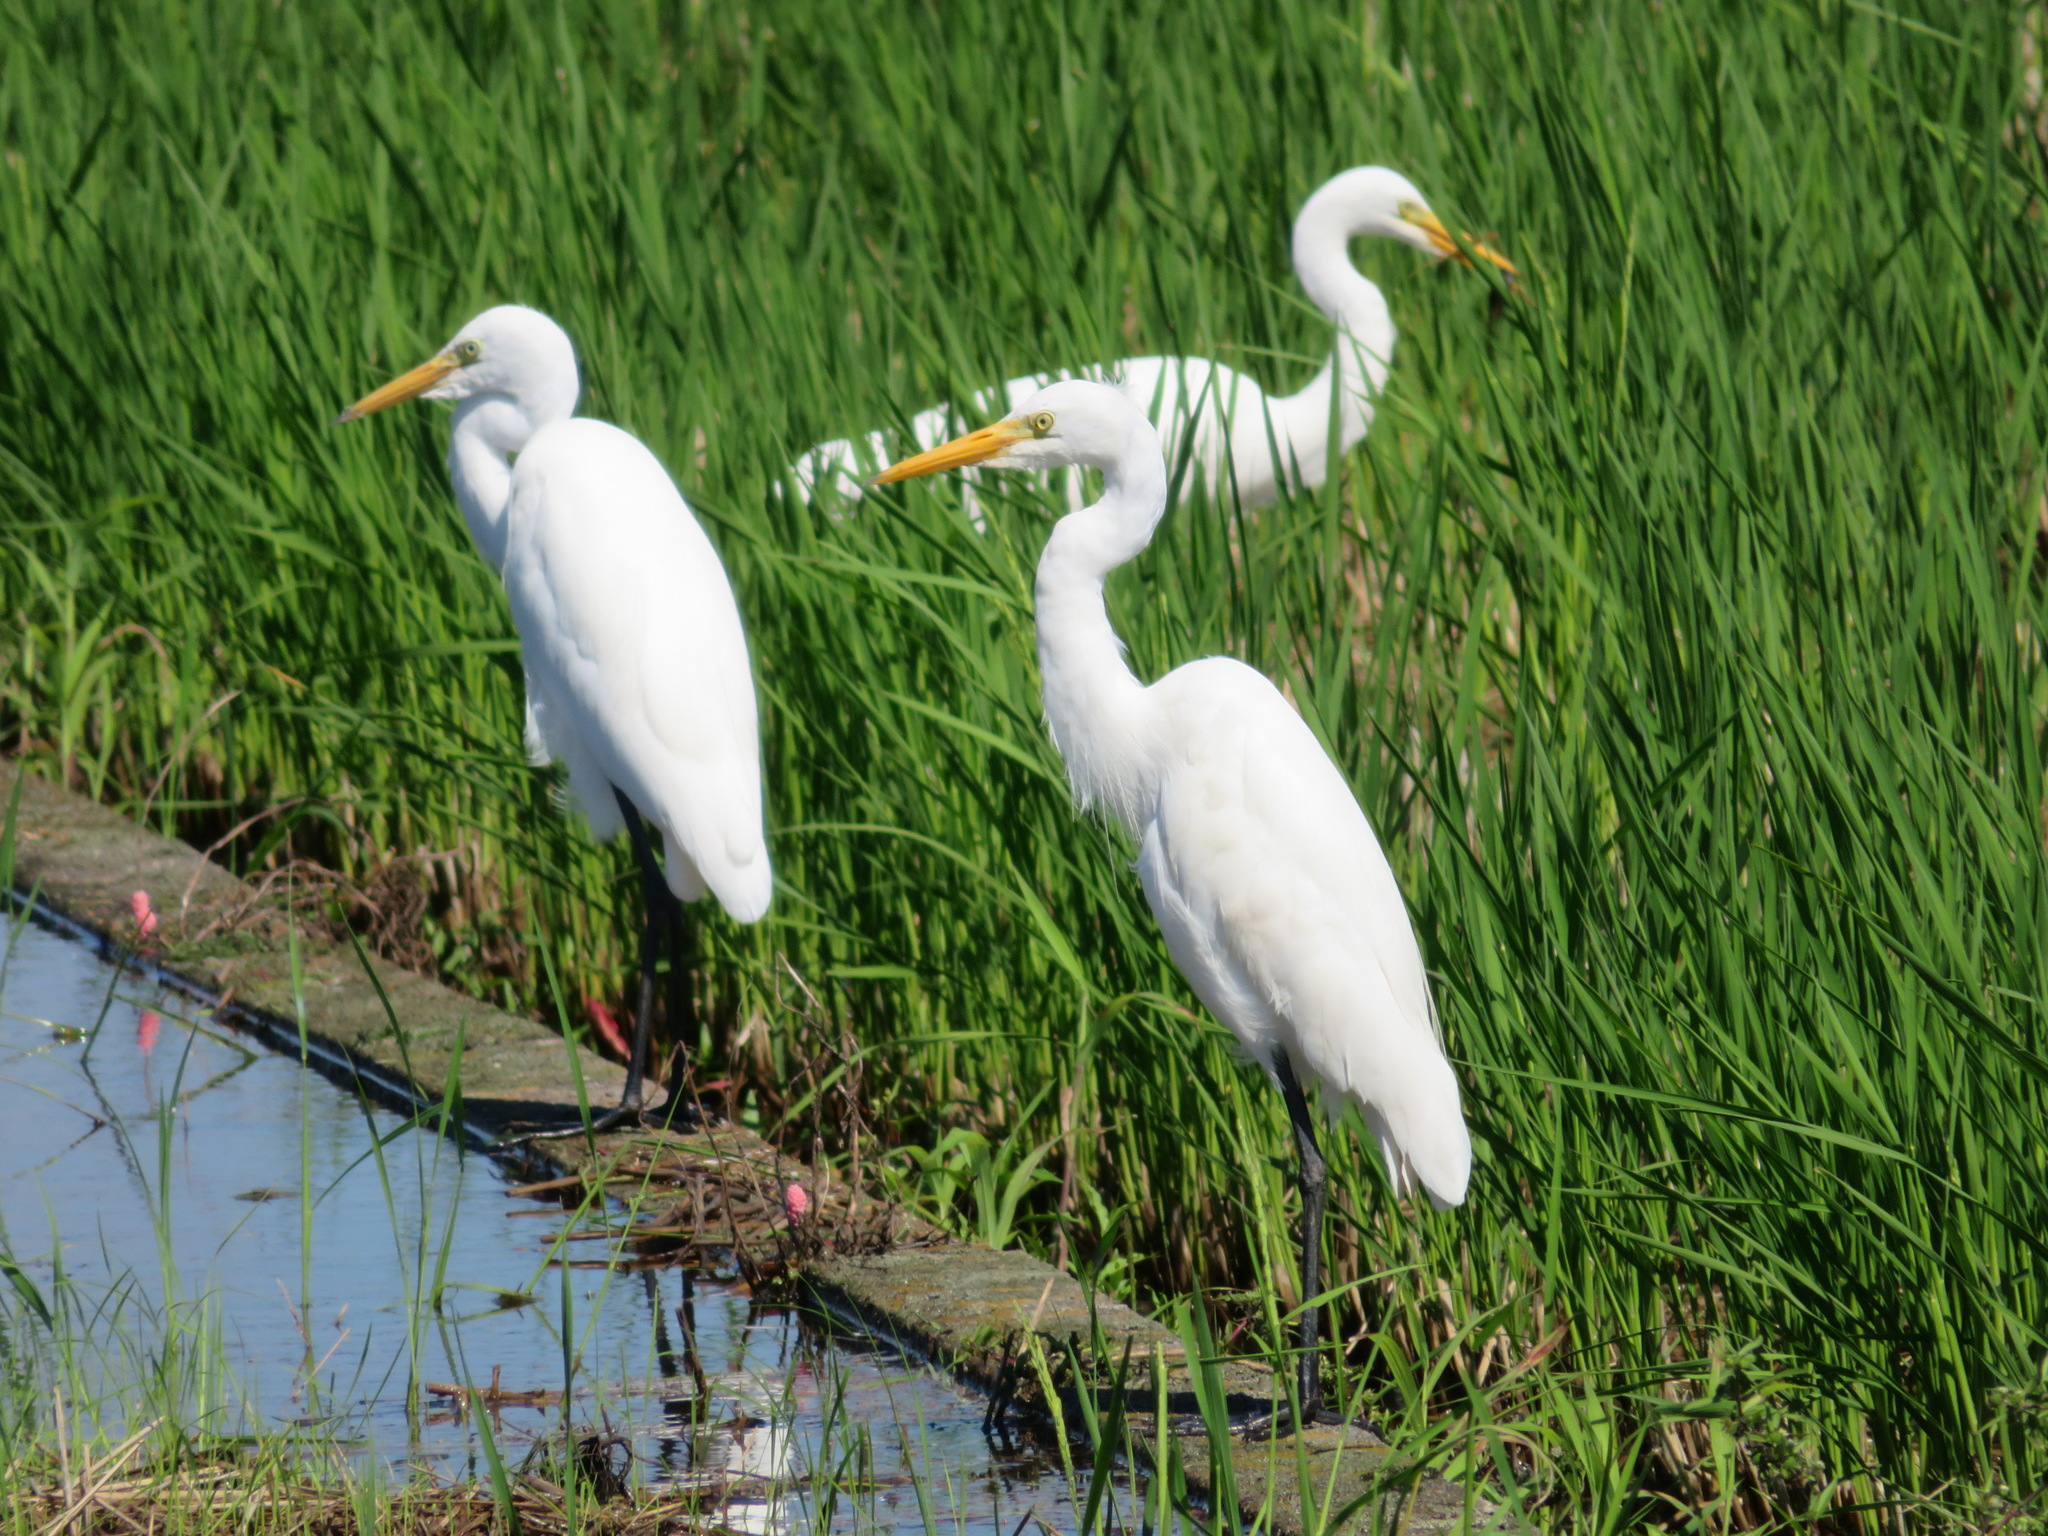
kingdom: Animalia
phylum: Chordata
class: Aves
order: Pelecaniformes
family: Ardeidae
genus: Ardea
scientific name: Ardea modesta
